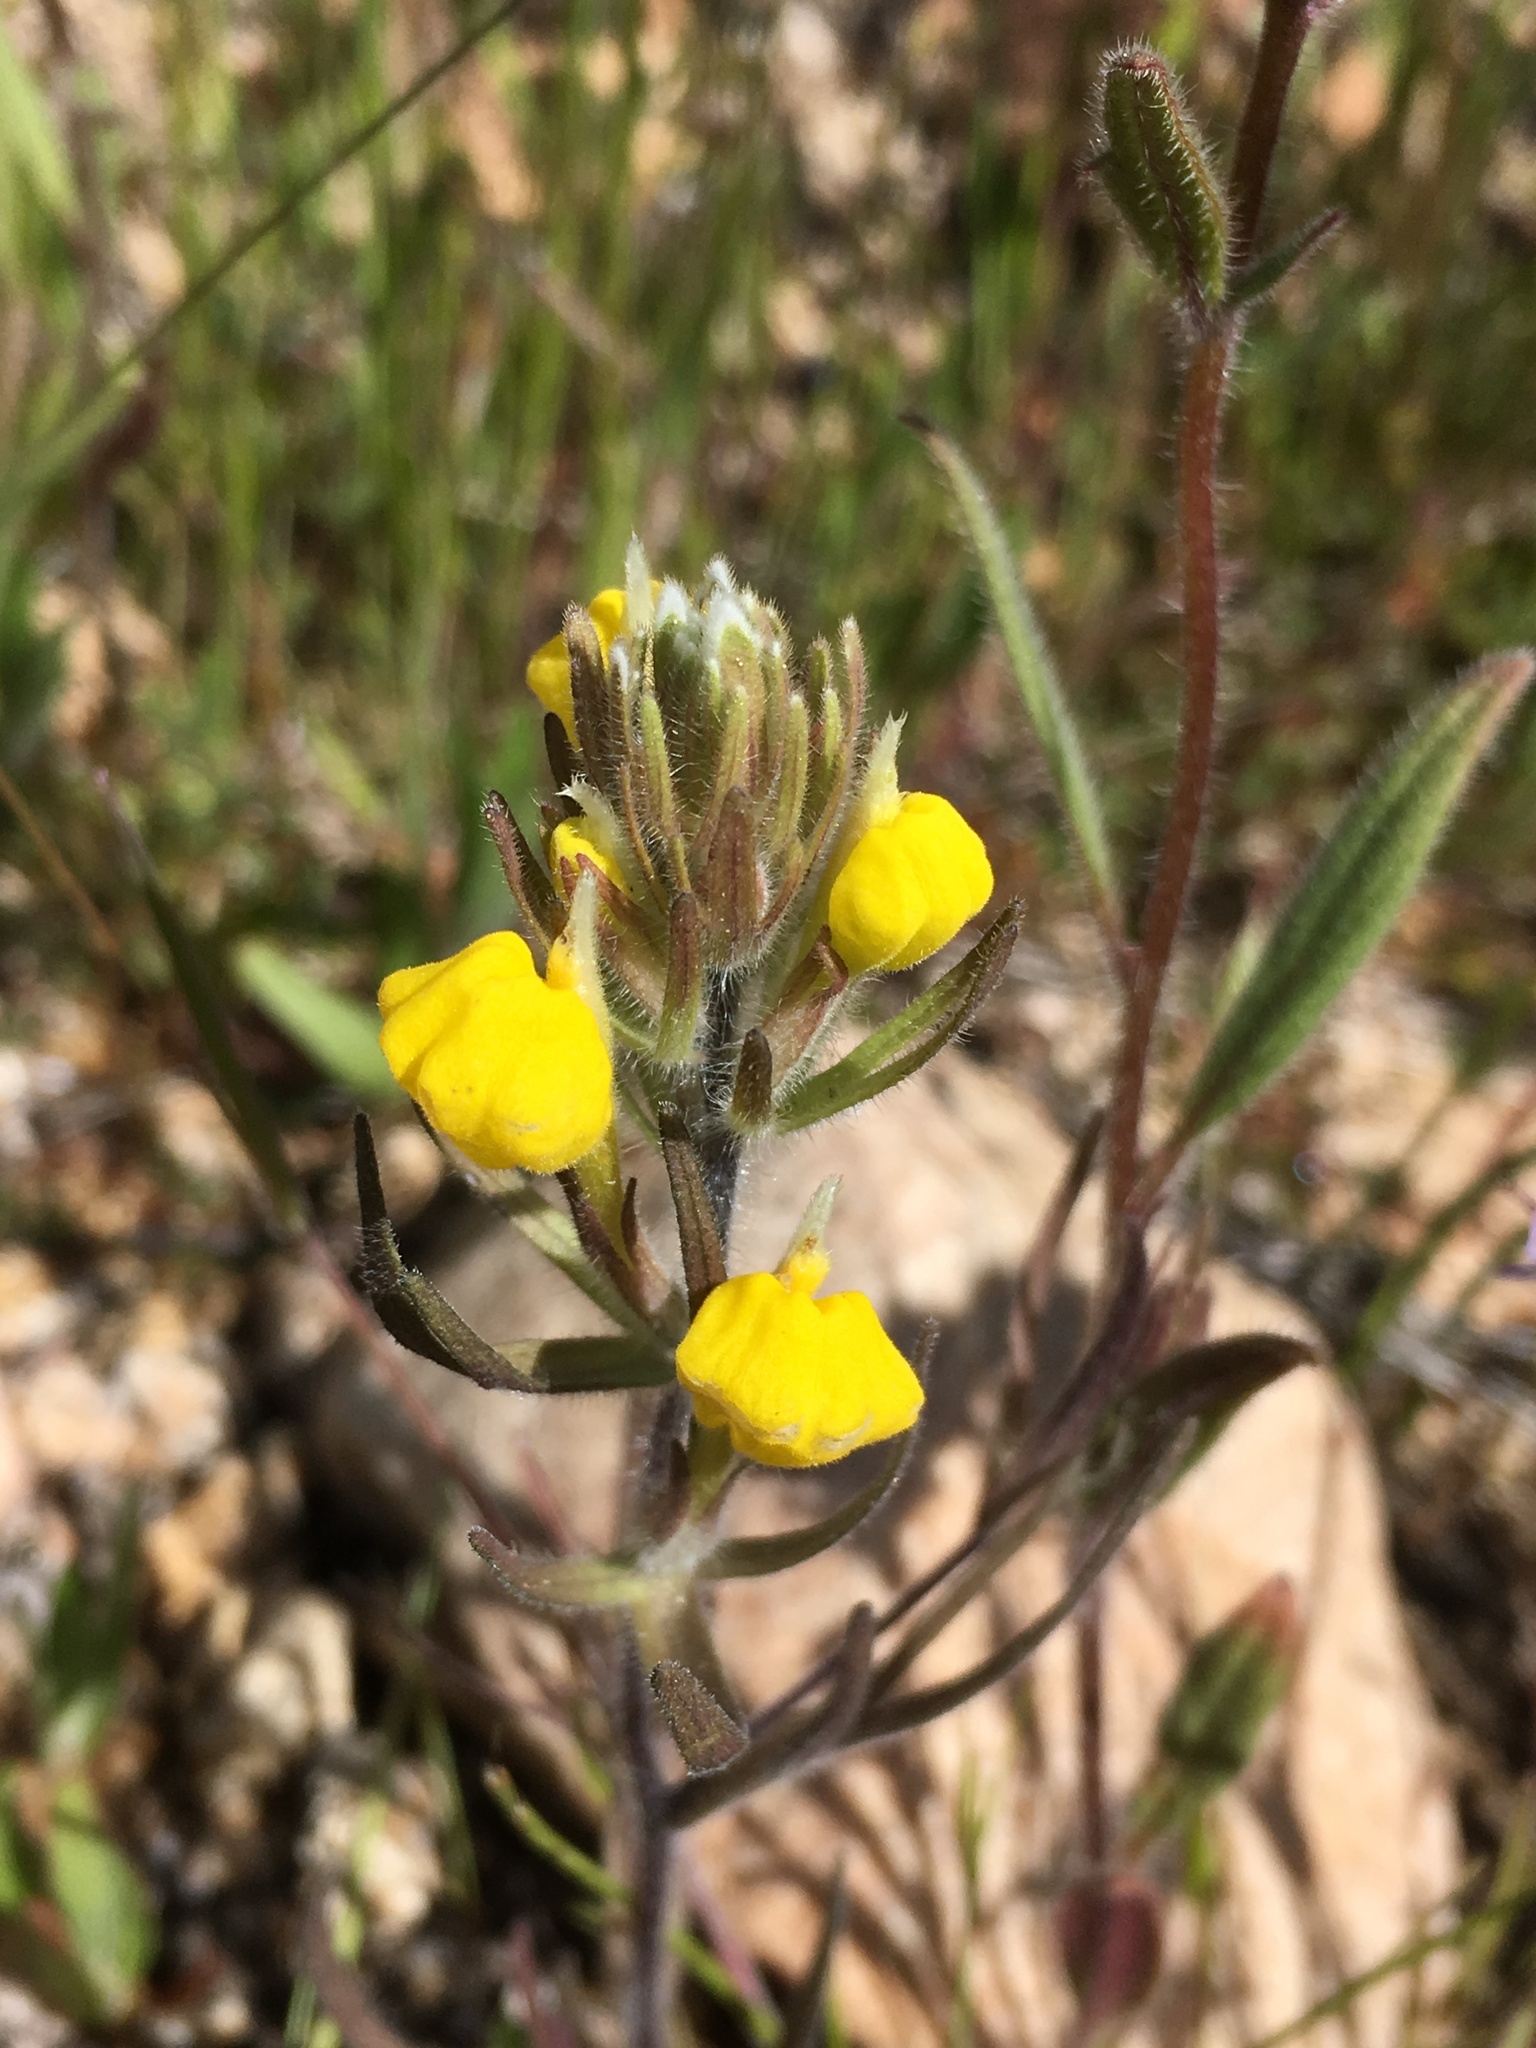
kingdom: Plantae
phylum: Tracheophyta
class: Magnoliopsida
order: Lamiales
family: Orobanchaceae
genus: Castilleja
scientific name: Castilleja lasiorhyncha
